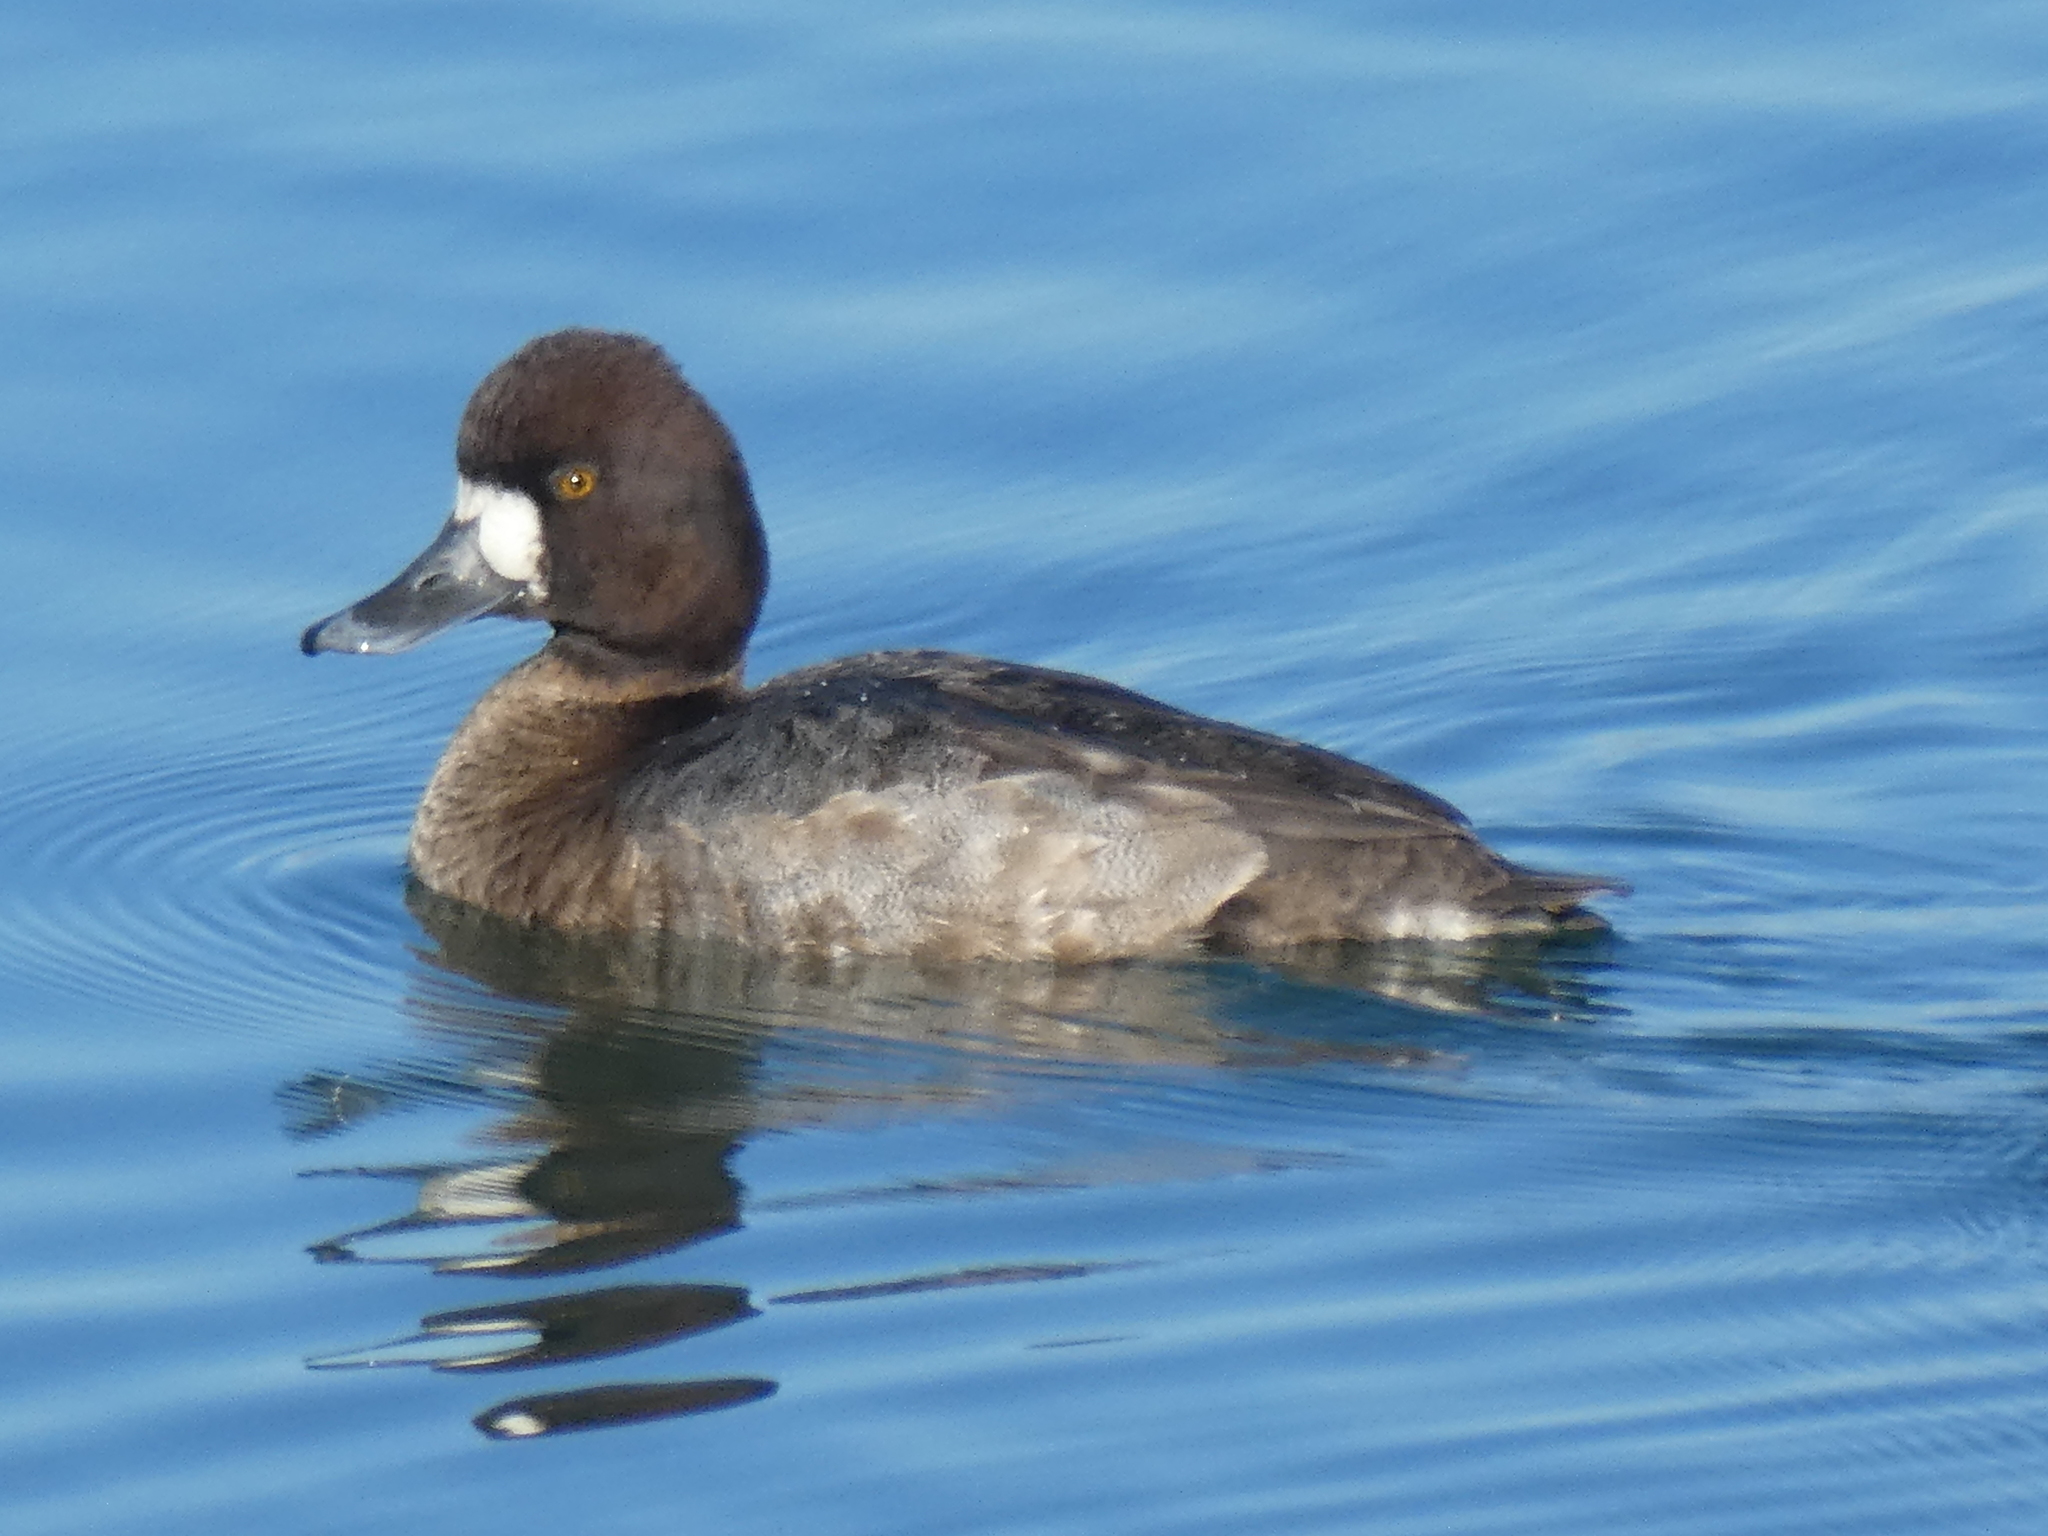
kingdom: Animalia
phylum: Chordata
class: Aves
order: Anseriformes
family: Anatidae
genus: Aythya
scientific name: Aythya marila
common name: Greater scaup
